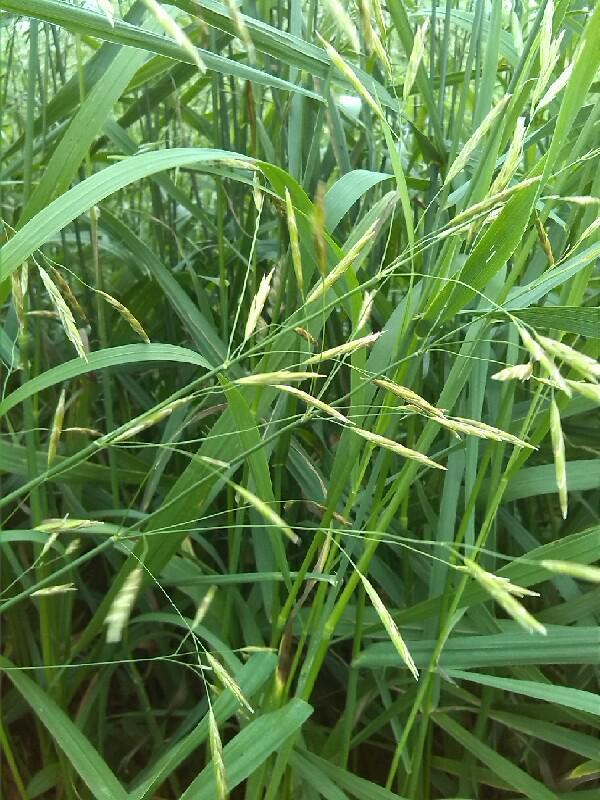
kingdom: Plantae
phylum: Tracheophyta
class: Liliopsida
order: Poales
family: Poaceae
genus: Bromus
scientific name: Bromus inermis
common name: Smooth brome
